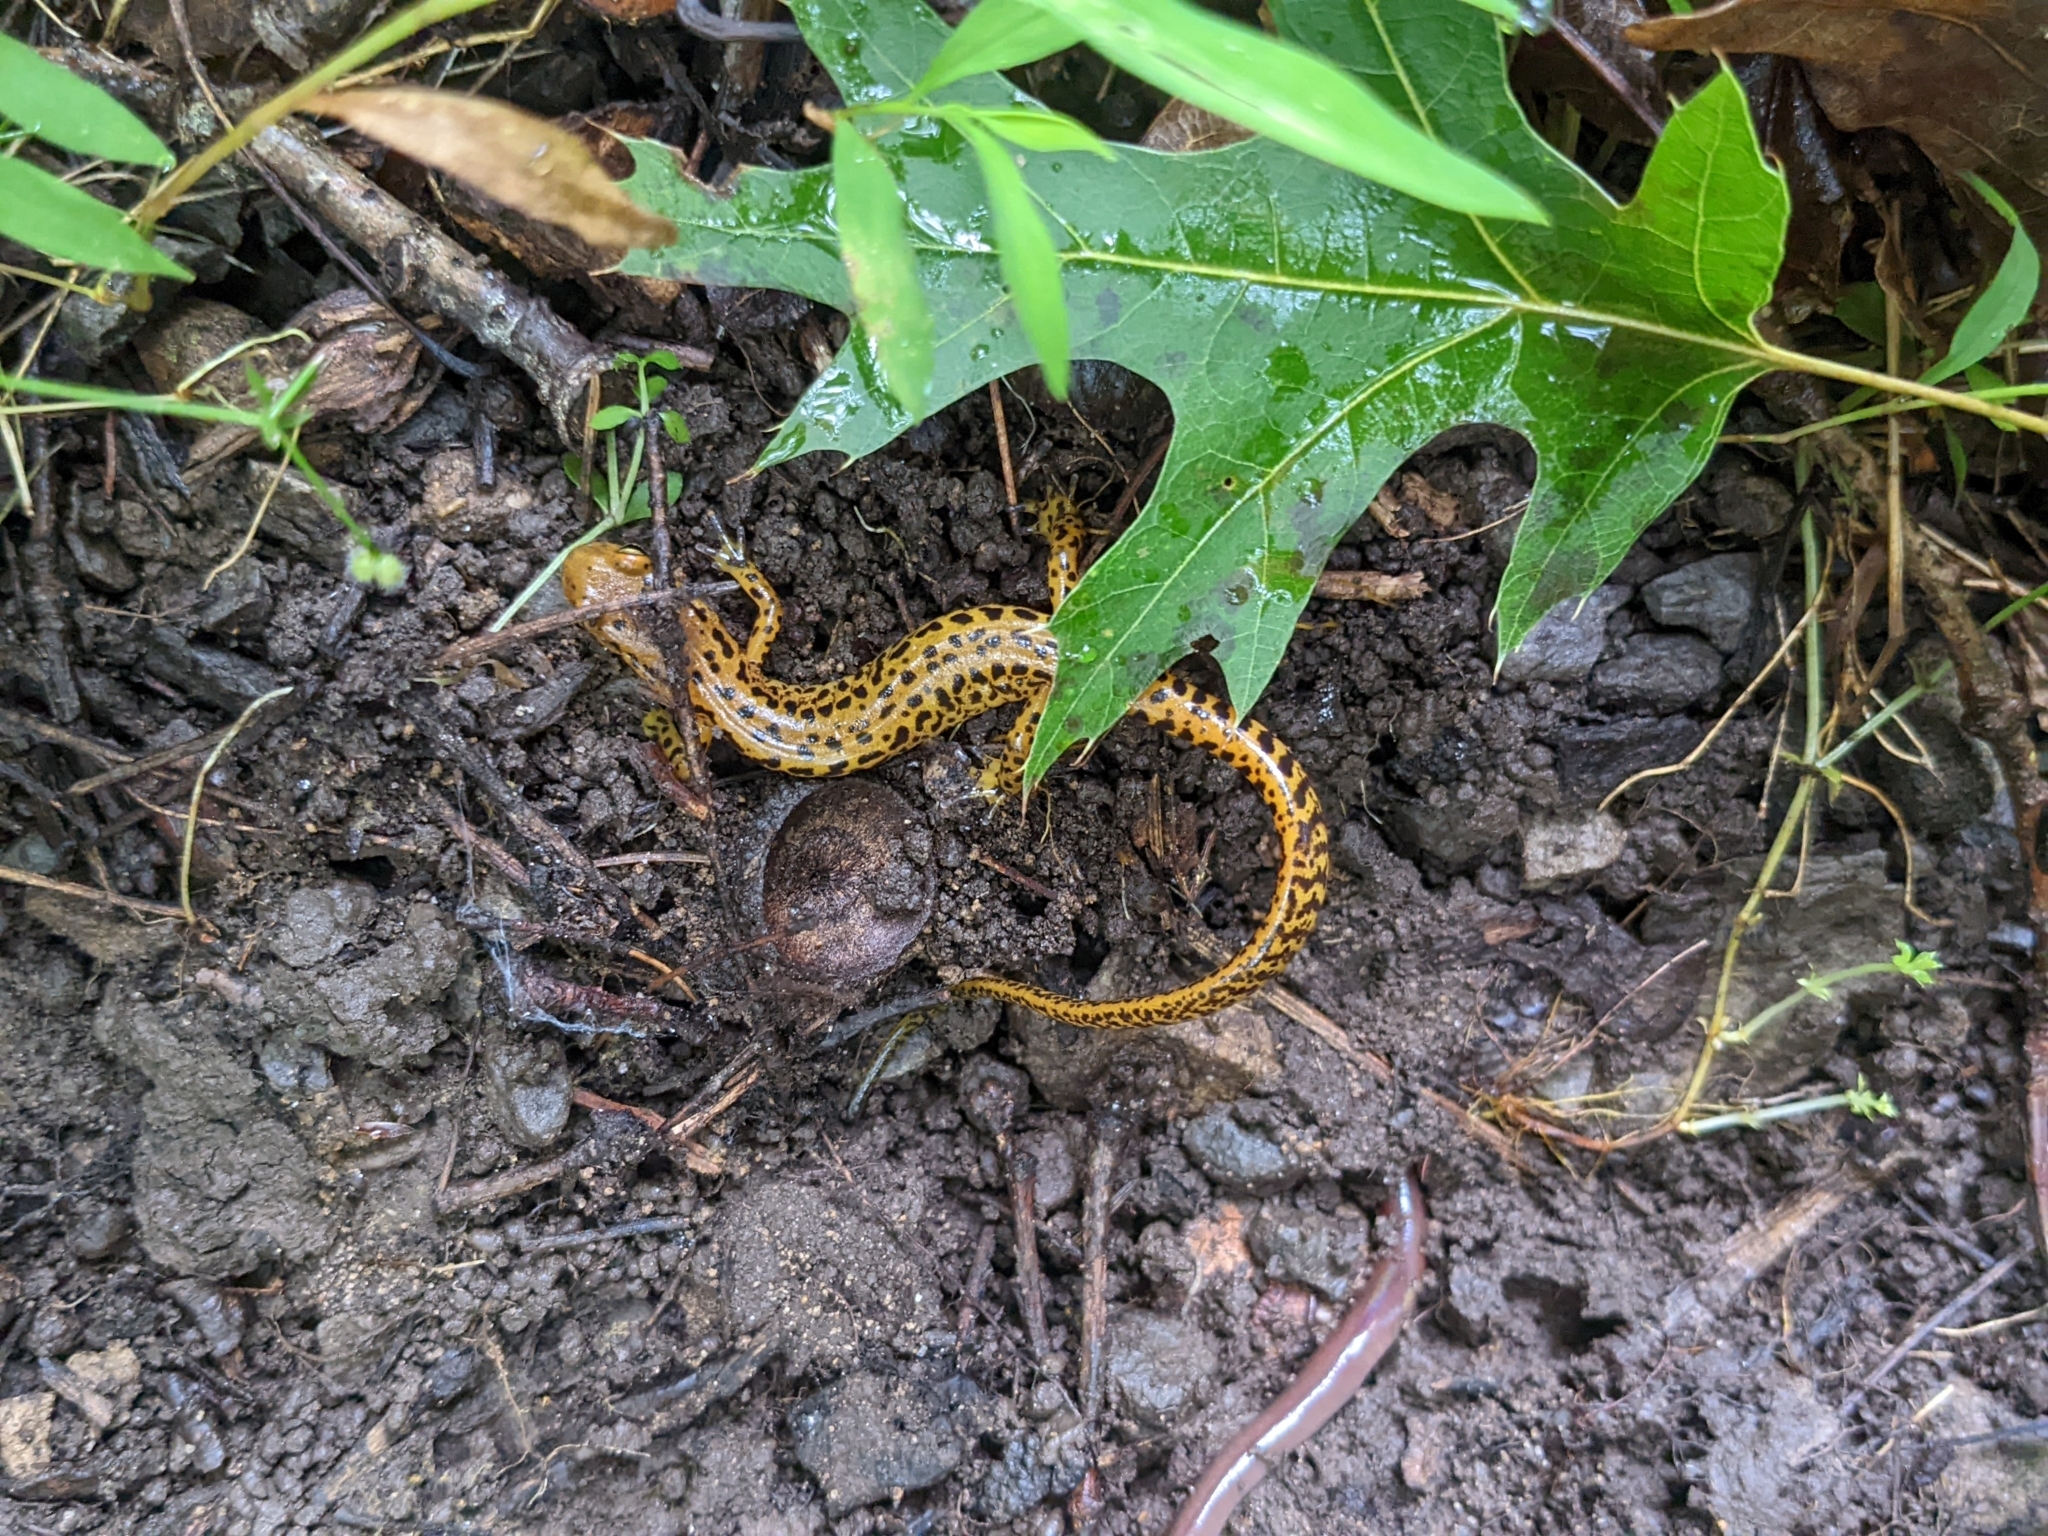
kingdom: Animalia
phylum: Chordata
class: Amphibia
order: Caudata
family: Plethodontidae
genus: Eurycea
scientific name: Eurycea longicauda
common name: Long-tailed salamander
